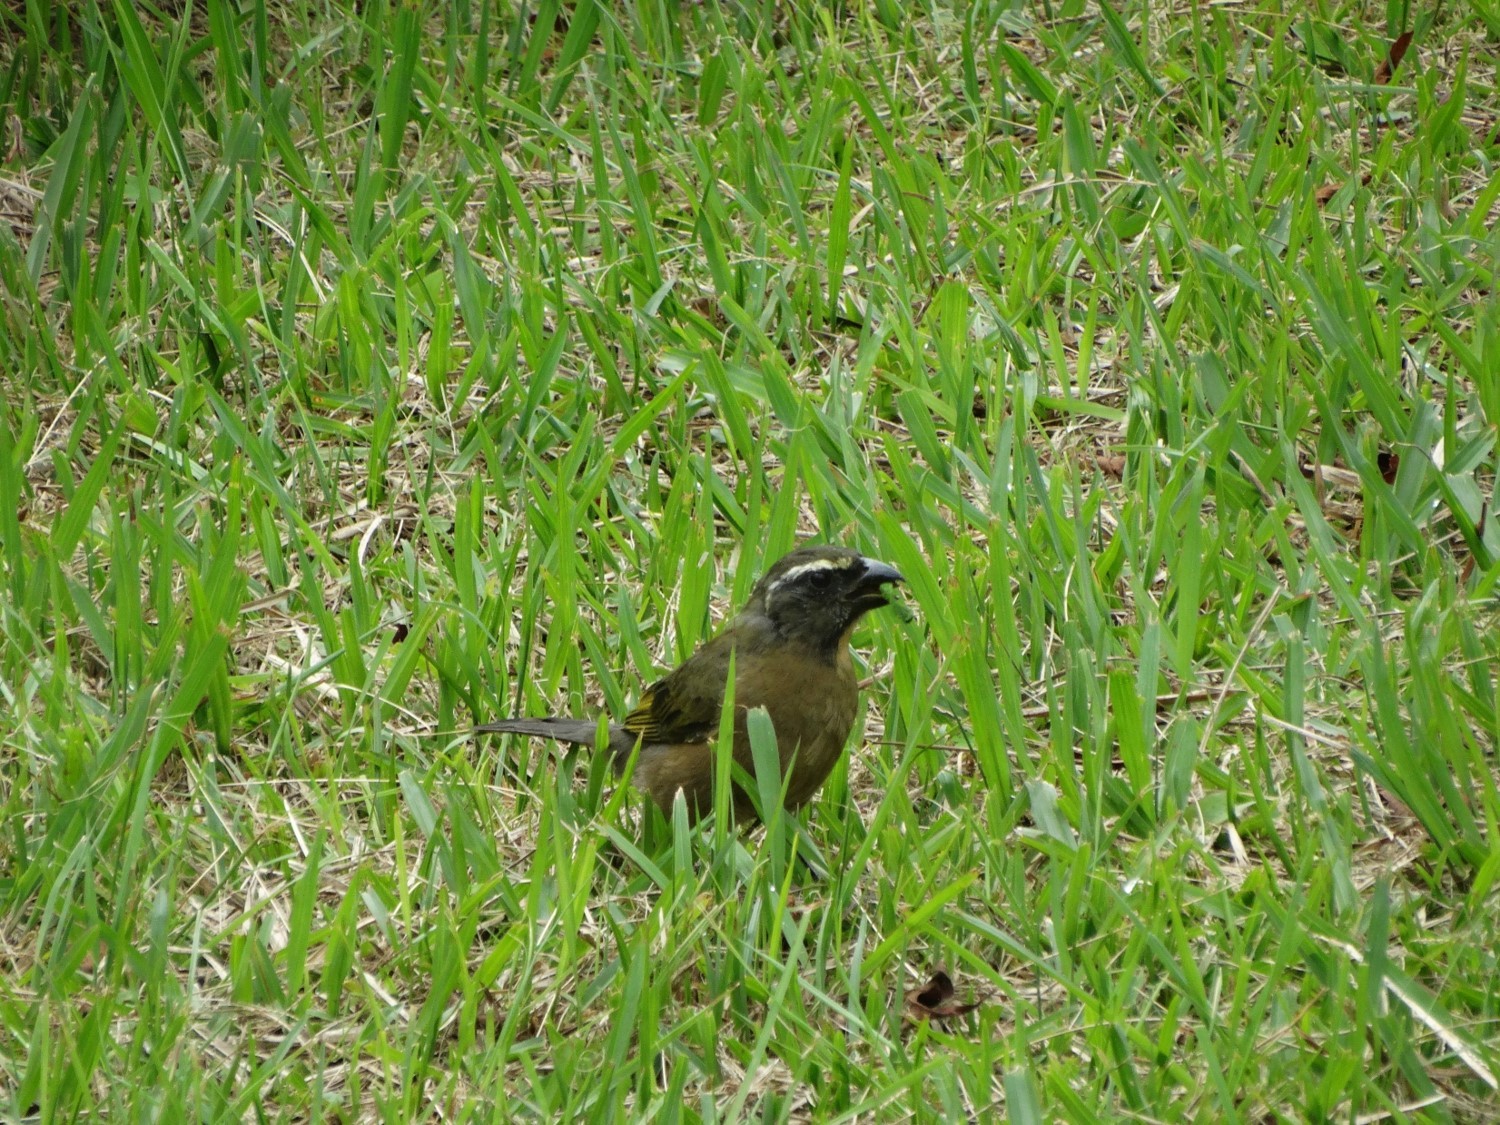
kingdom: Animalia
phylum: Chordata
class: Aves
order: Passeriformes
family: Thraupidae
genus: Saltator
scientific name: Saltator maxillosus
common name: Thick-billed saltator
